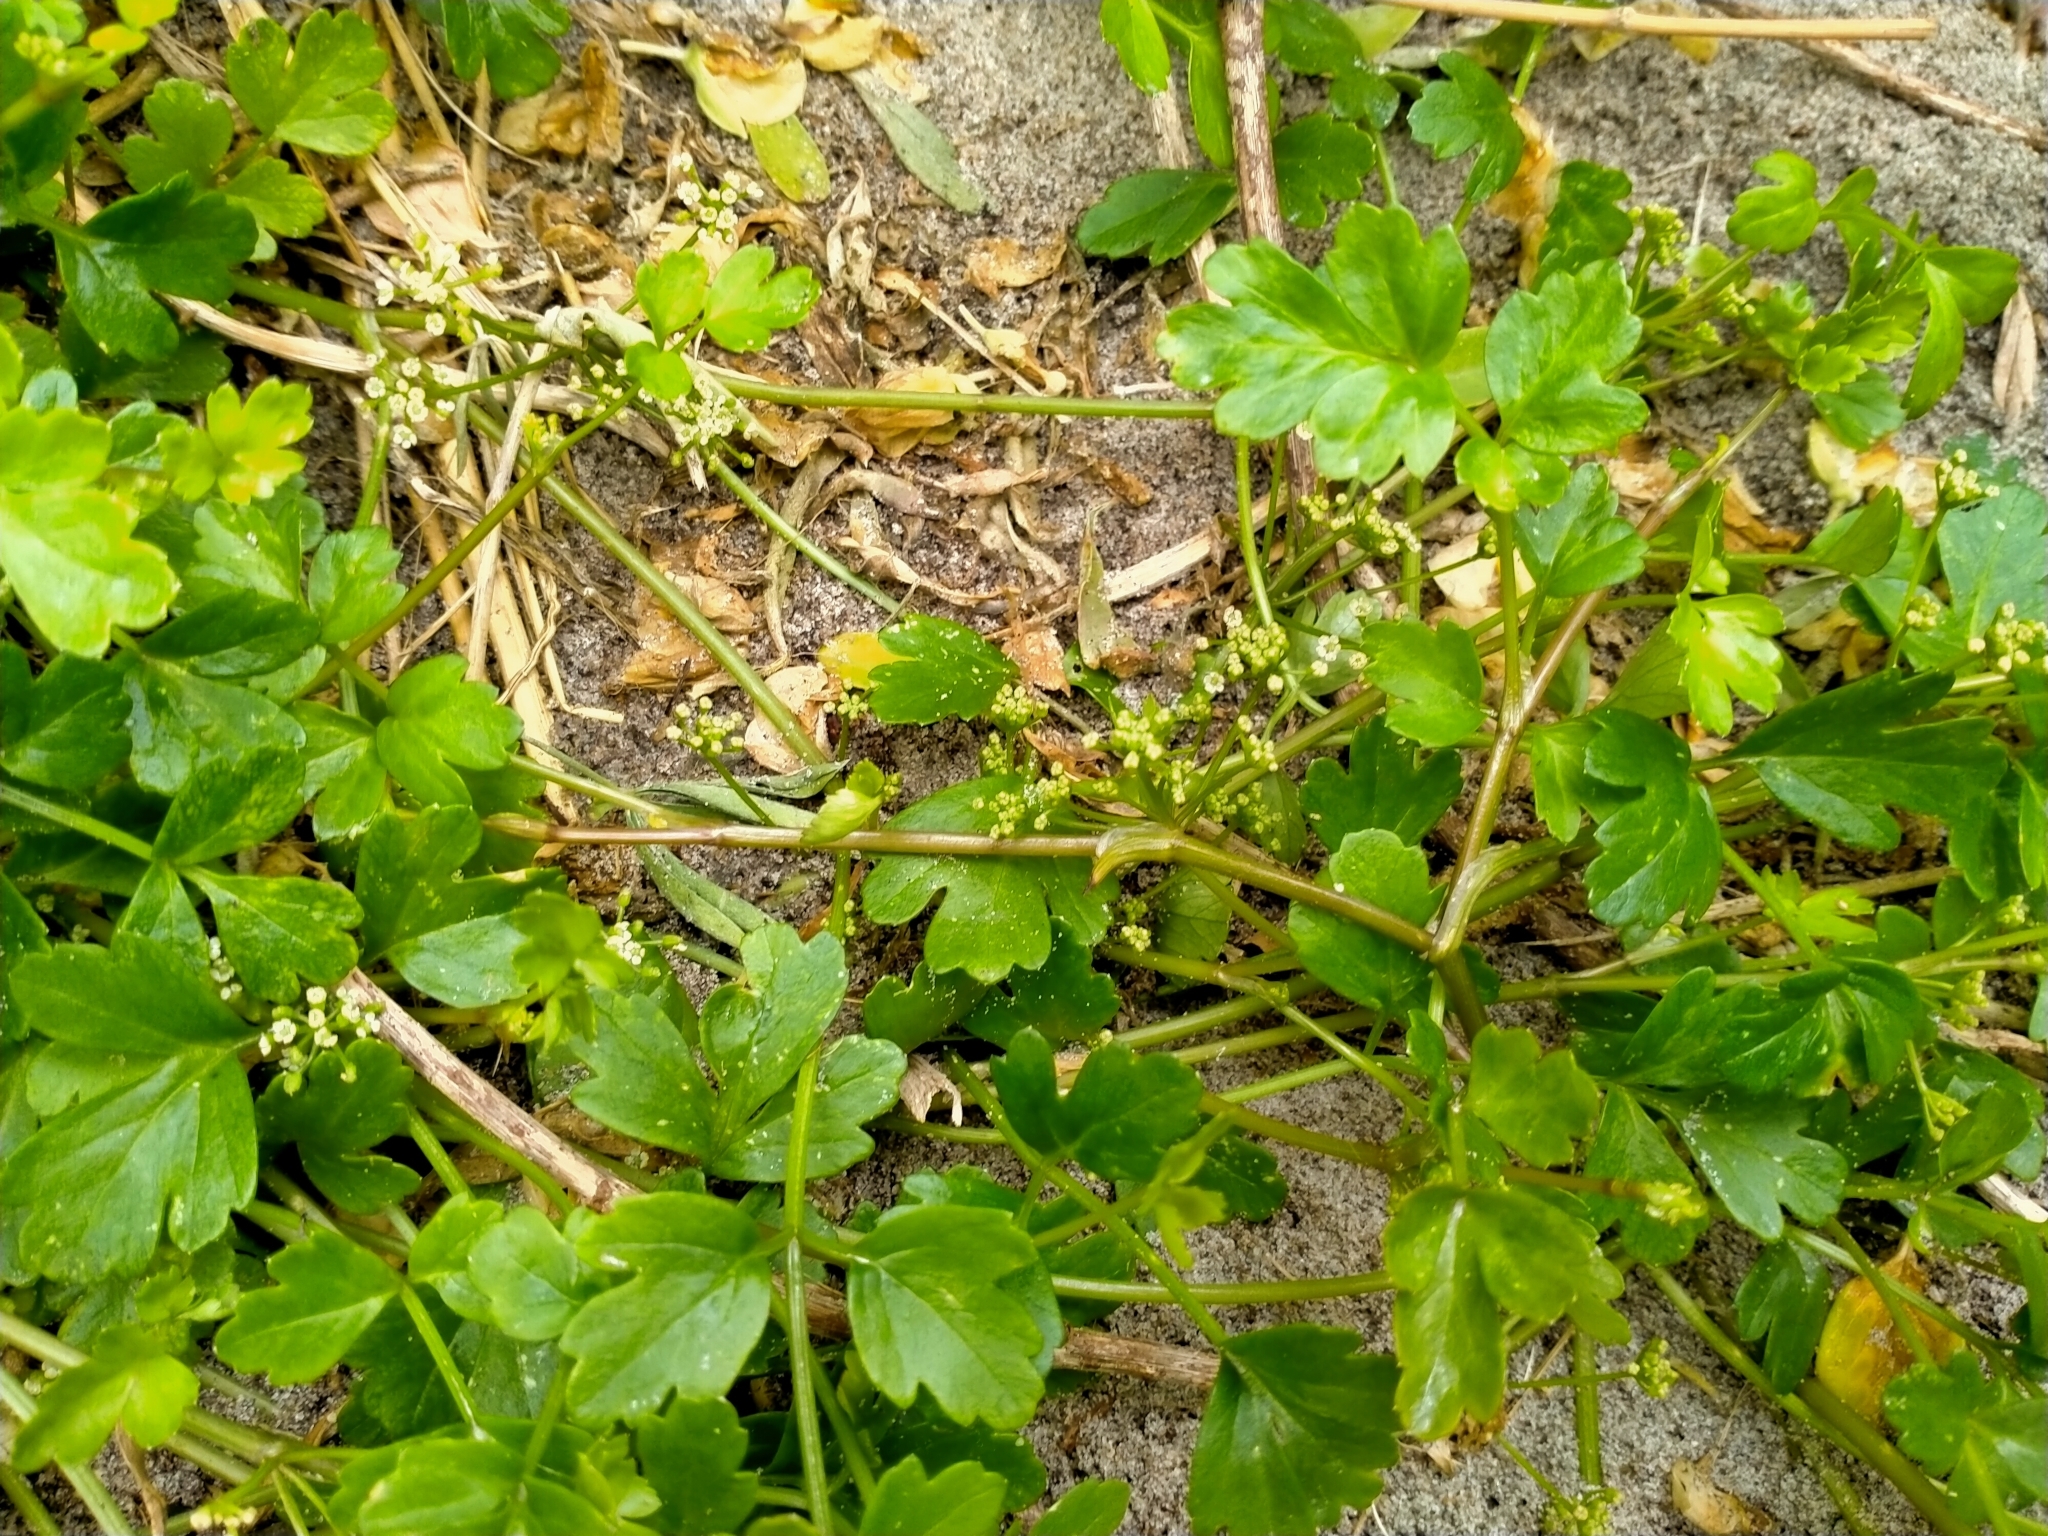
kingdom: Plantae
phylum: Tracheophyta
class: Magnoliopsida
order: Apiales
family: Apiaceae
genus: Apium
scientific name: Apium prostratum
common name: Prostrate marshwort
